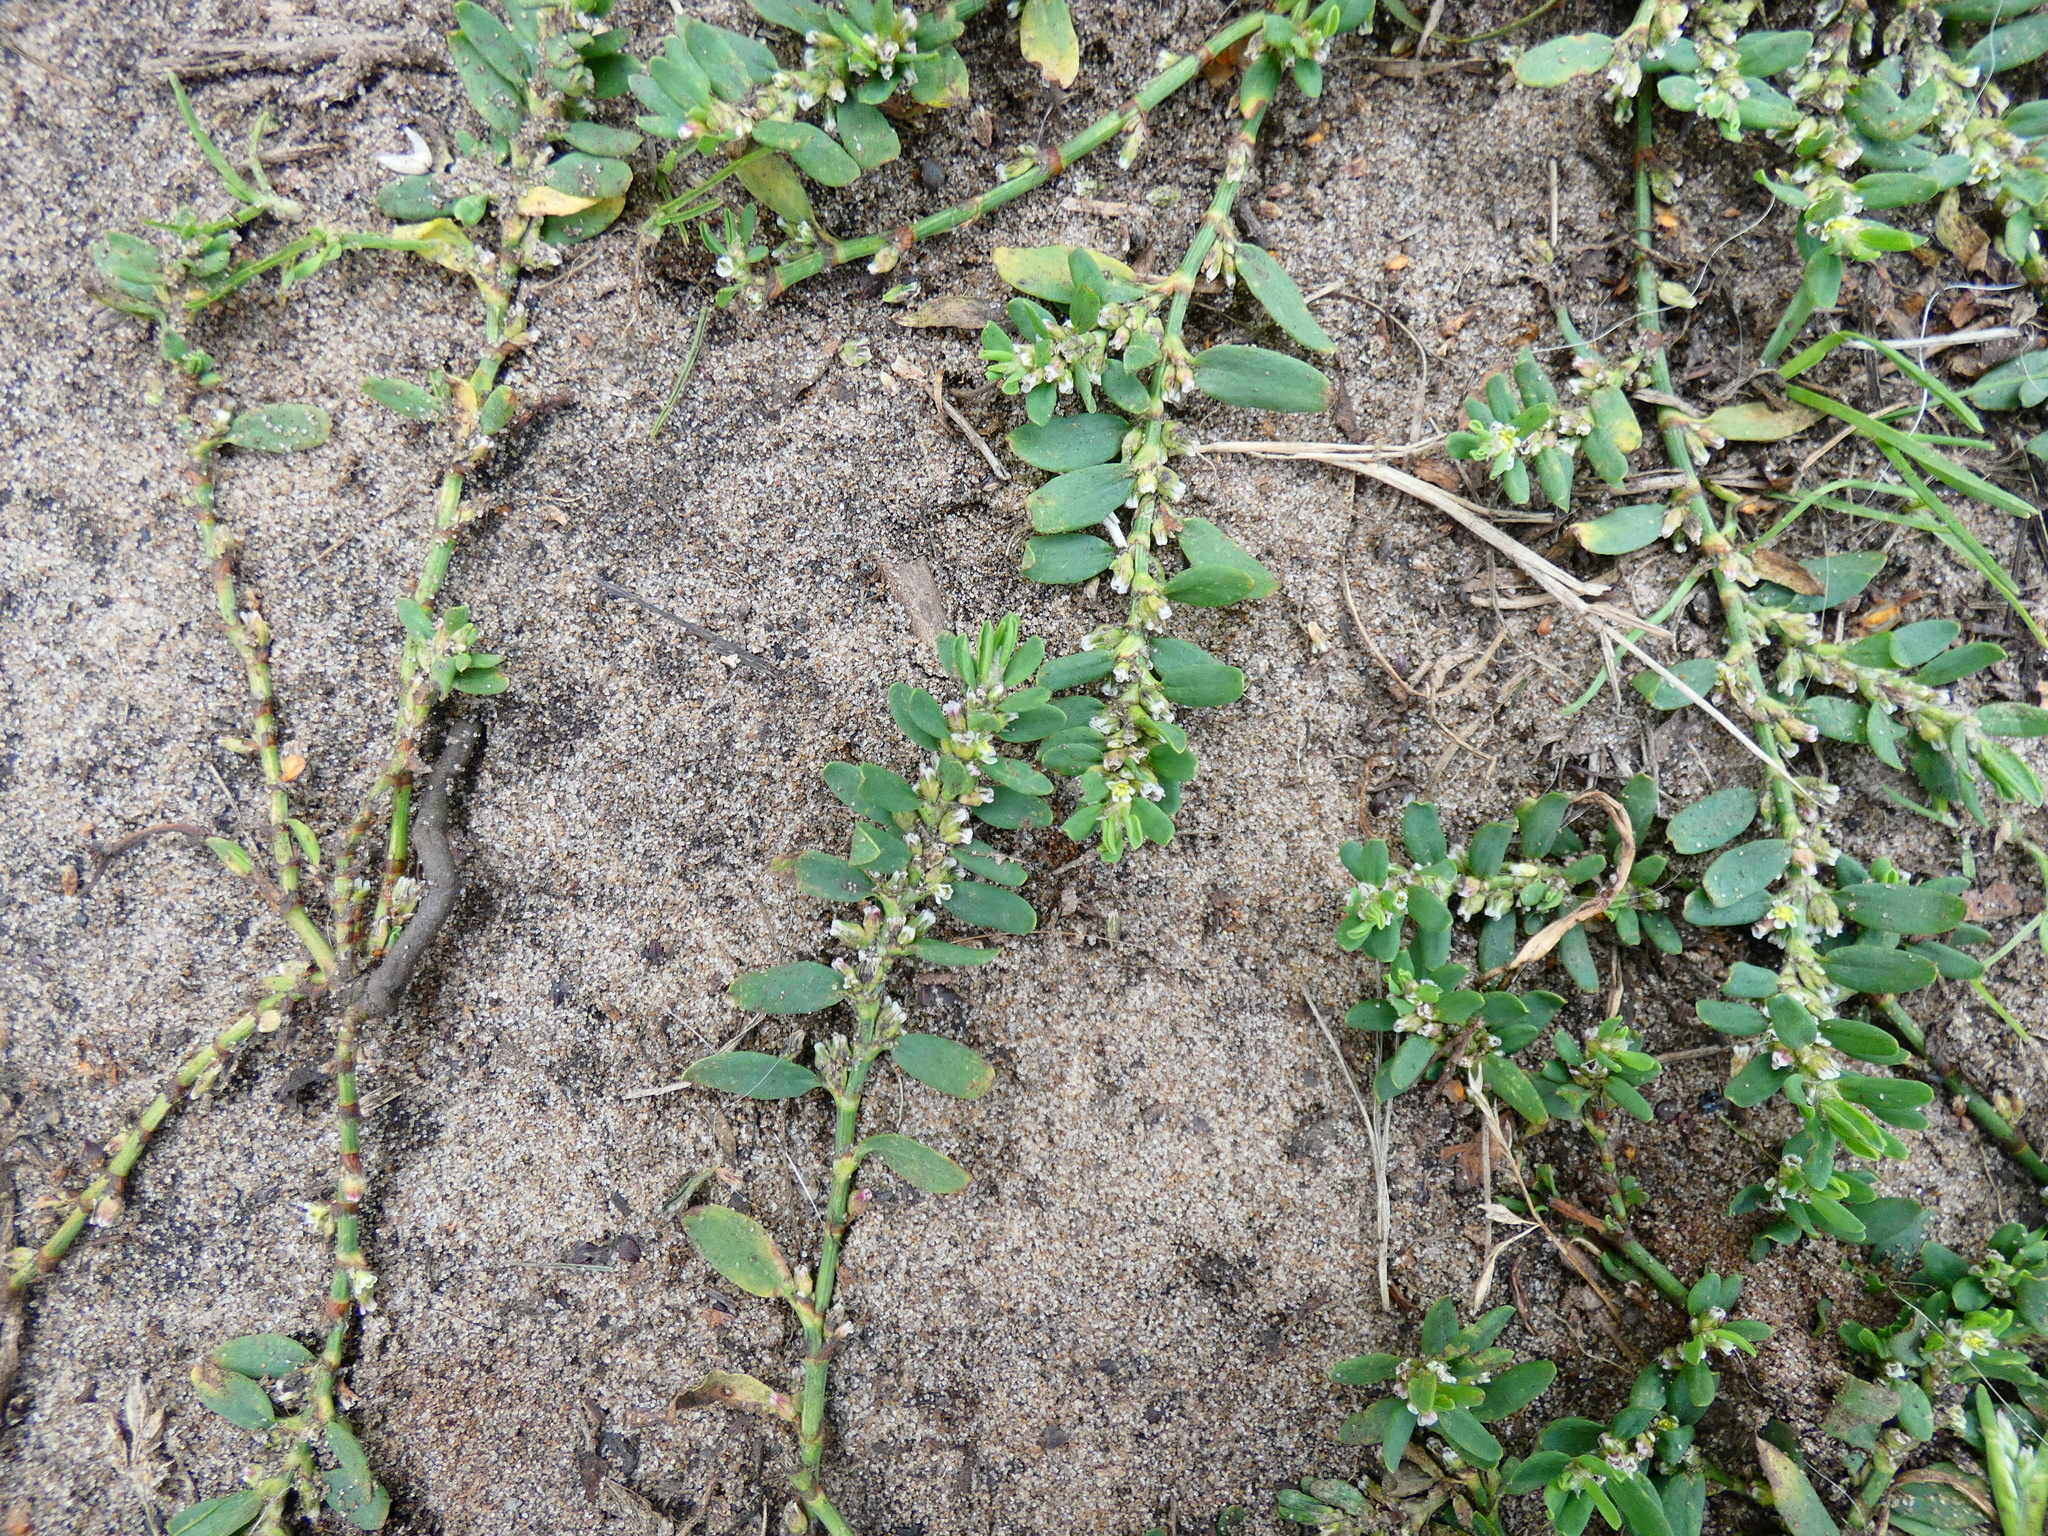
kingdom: Plantae
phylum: Tracheophyta
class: Magnoliopsida
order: Caryophyllales
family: Polygonaceae
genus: Polygonum
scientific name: Polygonum arenastrum
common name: Equal-leaved knotgrass
